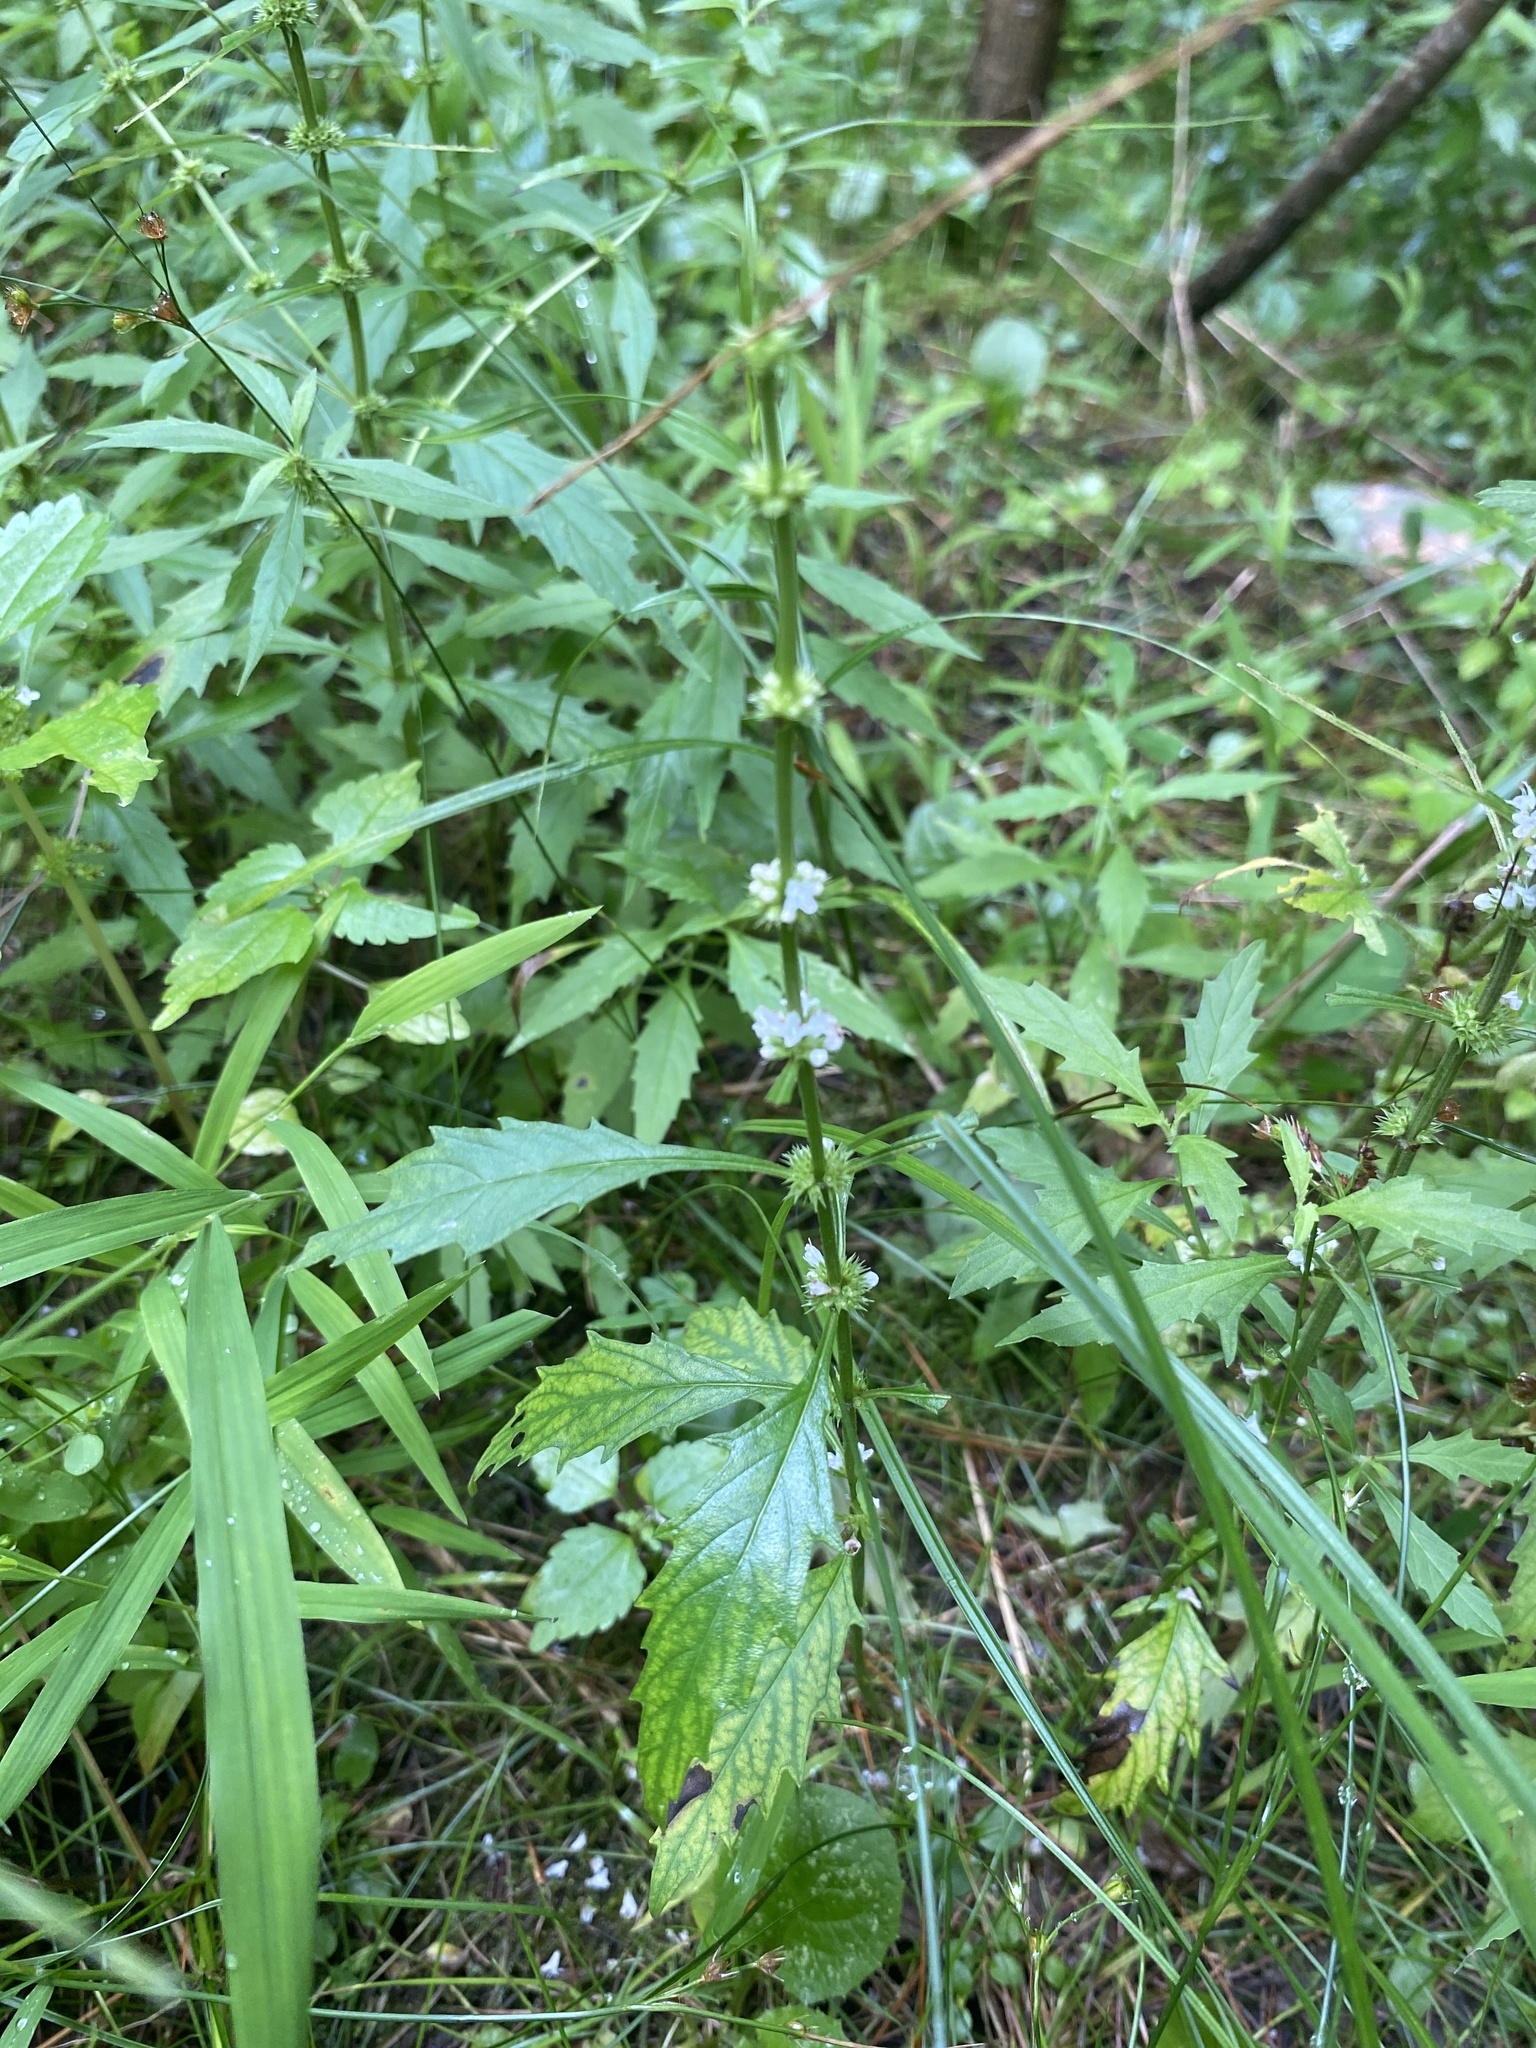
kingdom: Plantae
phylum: Tracheophyta
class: Magnoliopsida
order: Lamiales
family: Lamiaceae
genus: Lycopus
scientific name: Lycopus americanus
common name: American bugleweed
